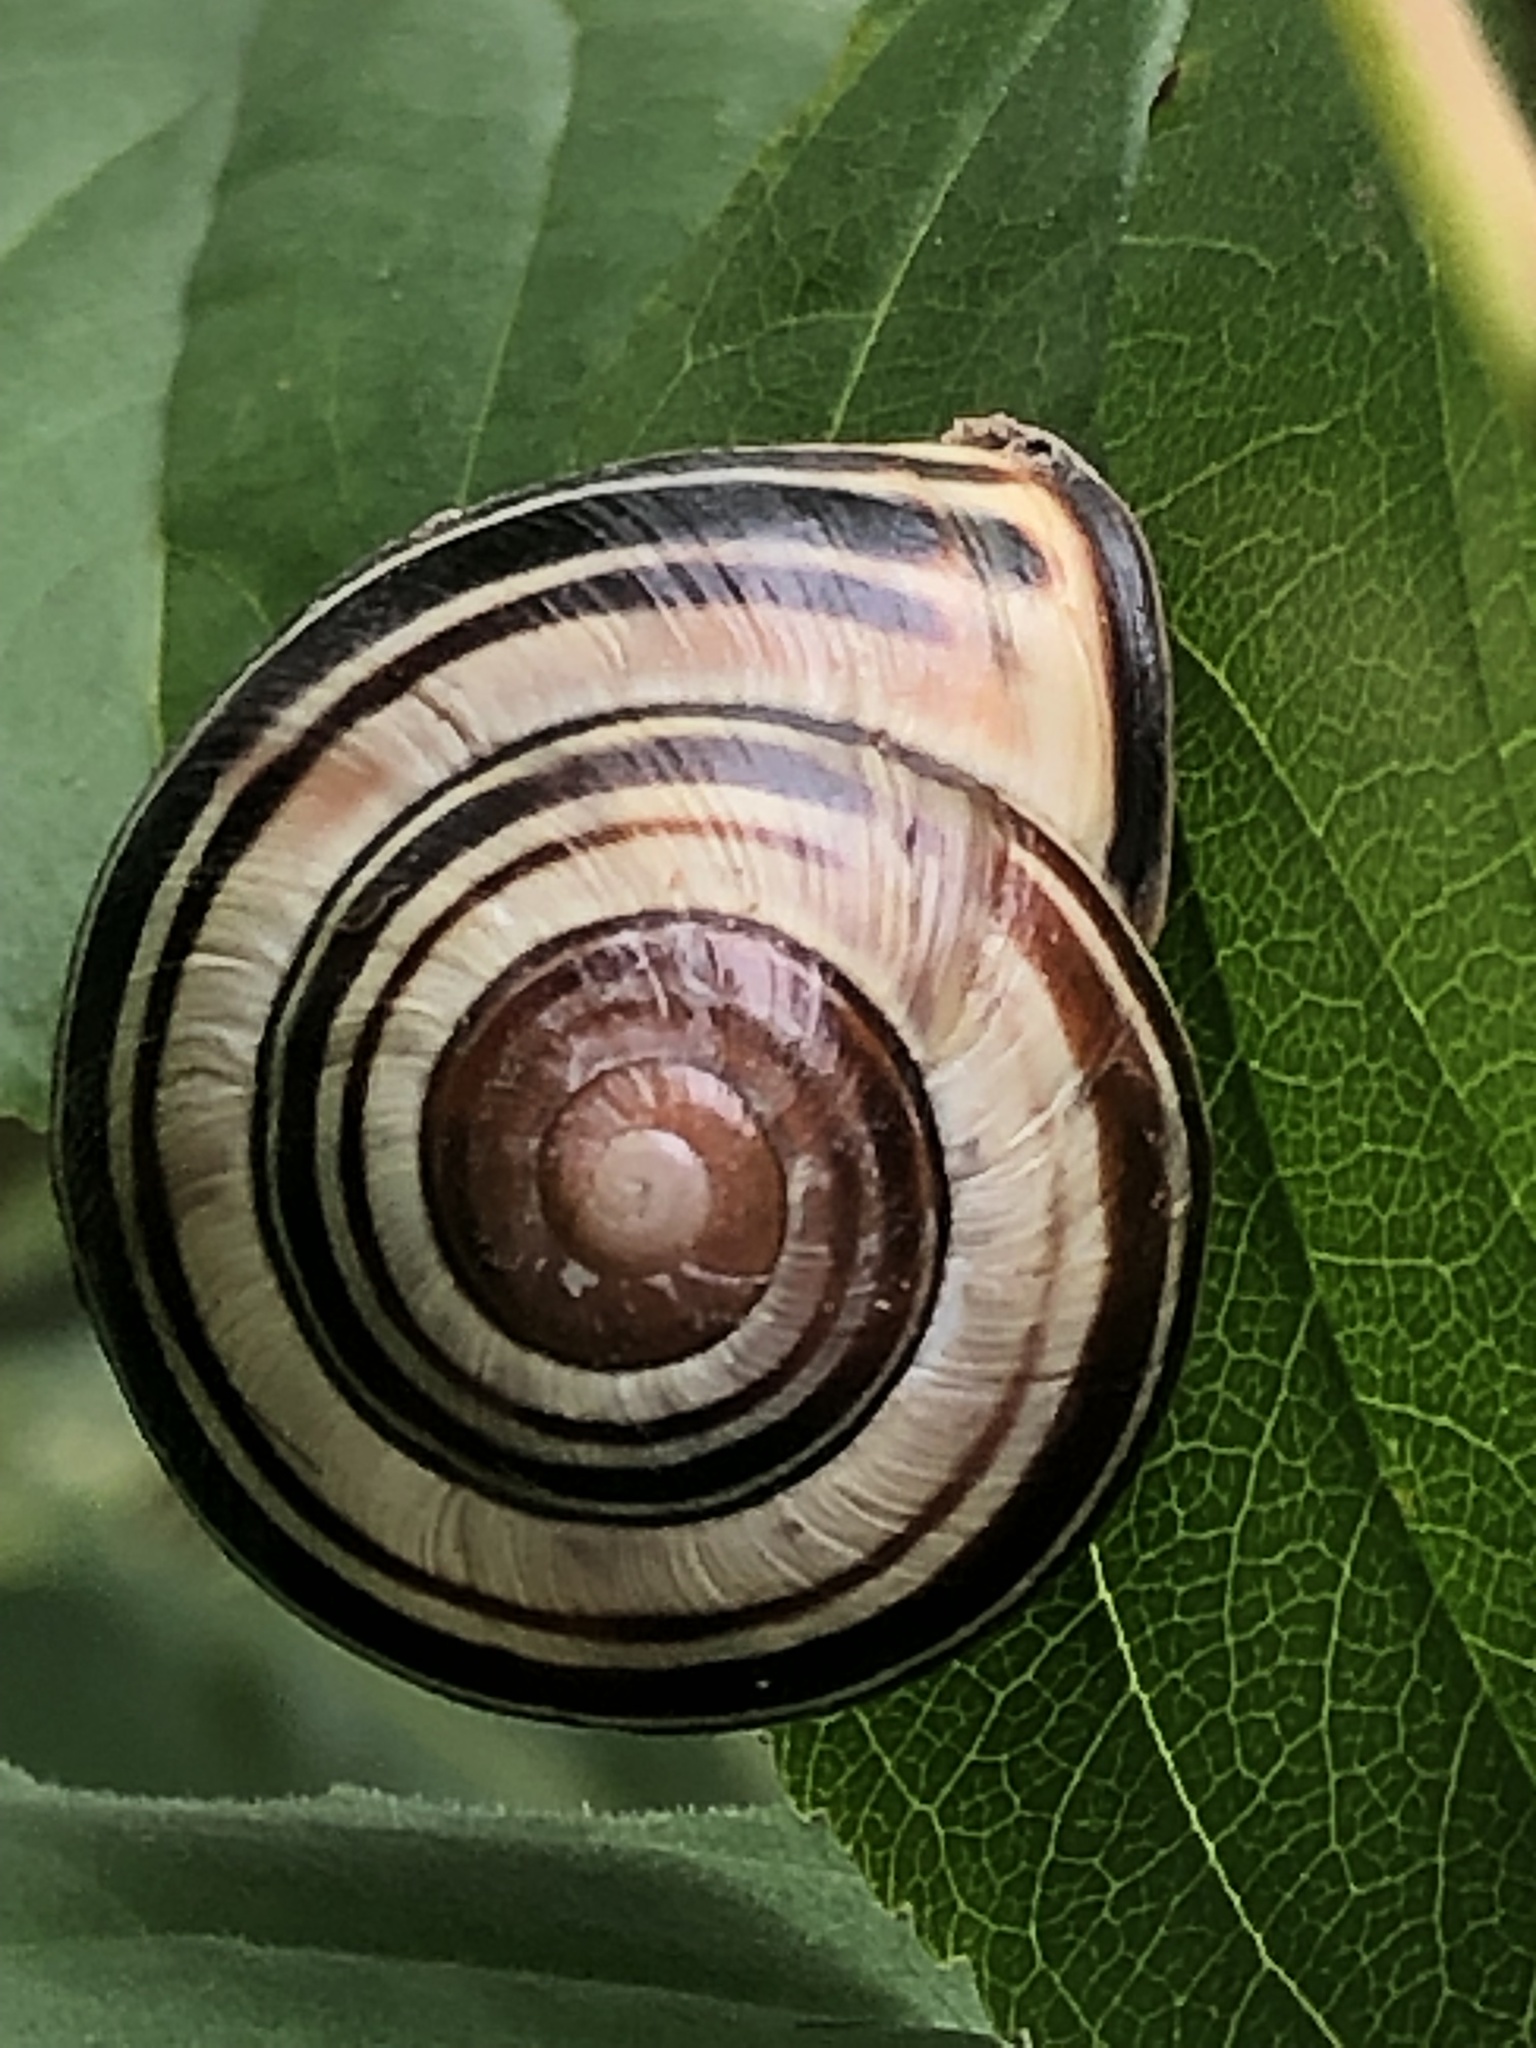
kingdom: Animalia
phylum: Mollusca
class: Gastropoda
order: Stylommatophora
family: Helicidae
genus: Cepaea
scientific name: Cepaea nemoralis
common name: Grovesnail
